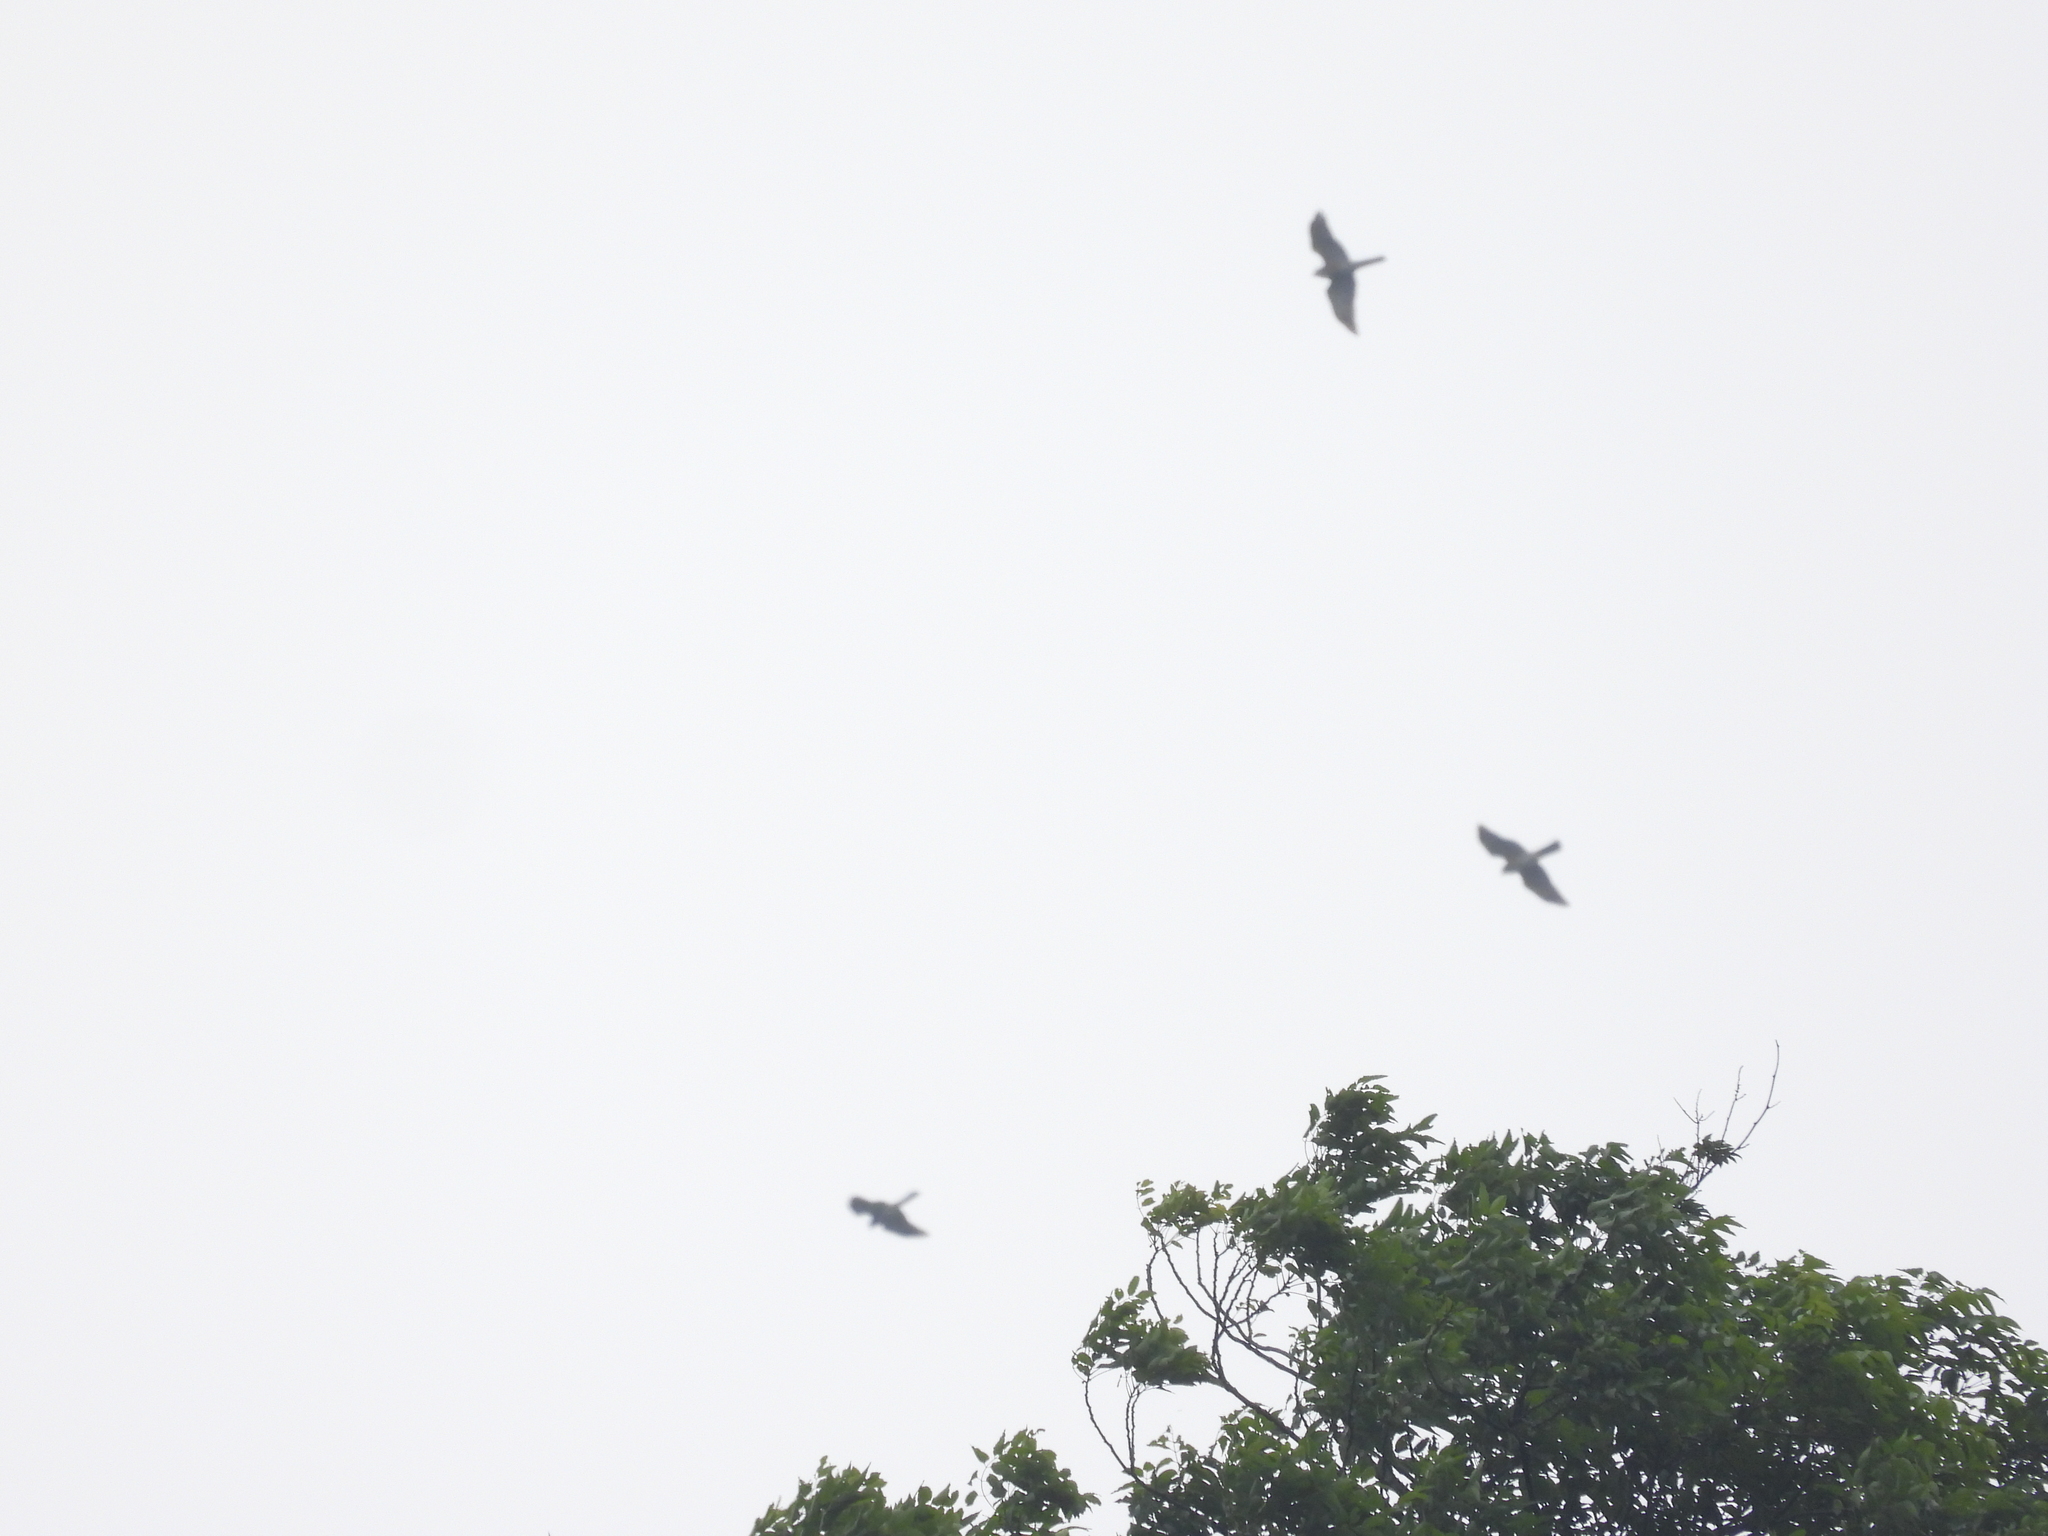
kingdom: Animalia
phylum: Chordata
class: Aves
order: Accipitriformes
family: Accipitridae
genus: Accipiter
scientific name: Accipiter soloensis
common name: Chinese sparrowhawk
